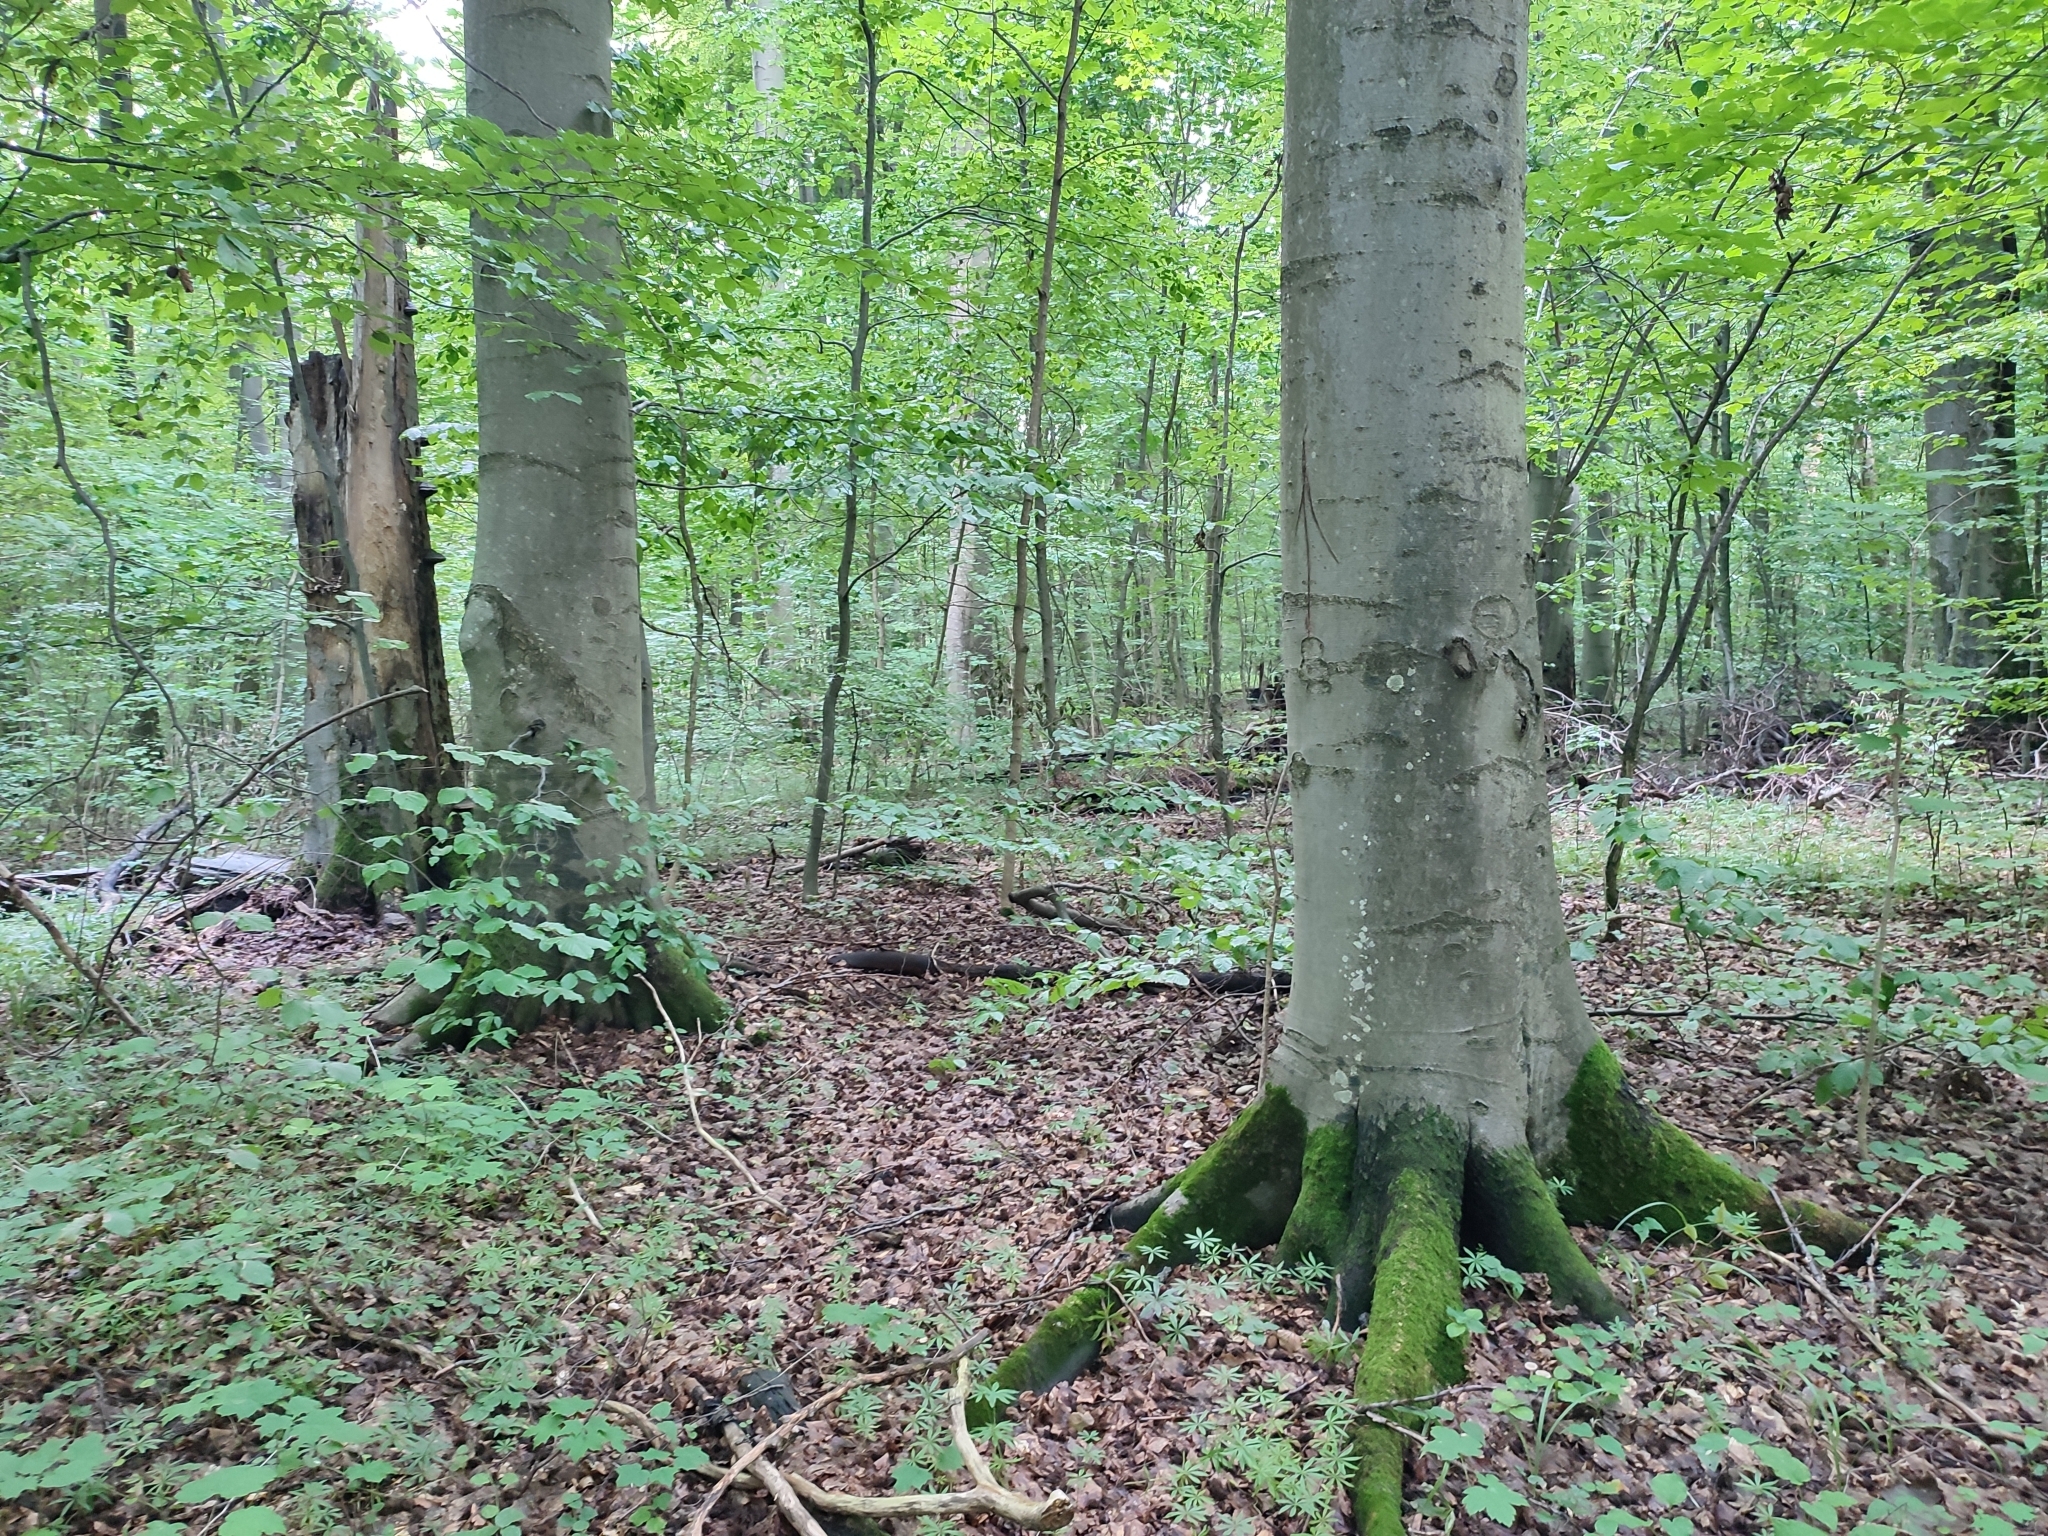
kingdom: Plantae
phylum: Tracheophyta
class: Magnoliopsida
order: Fagales
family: Fagaceae
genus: Fagus
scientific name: Fagus sylvatica
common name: Beech
